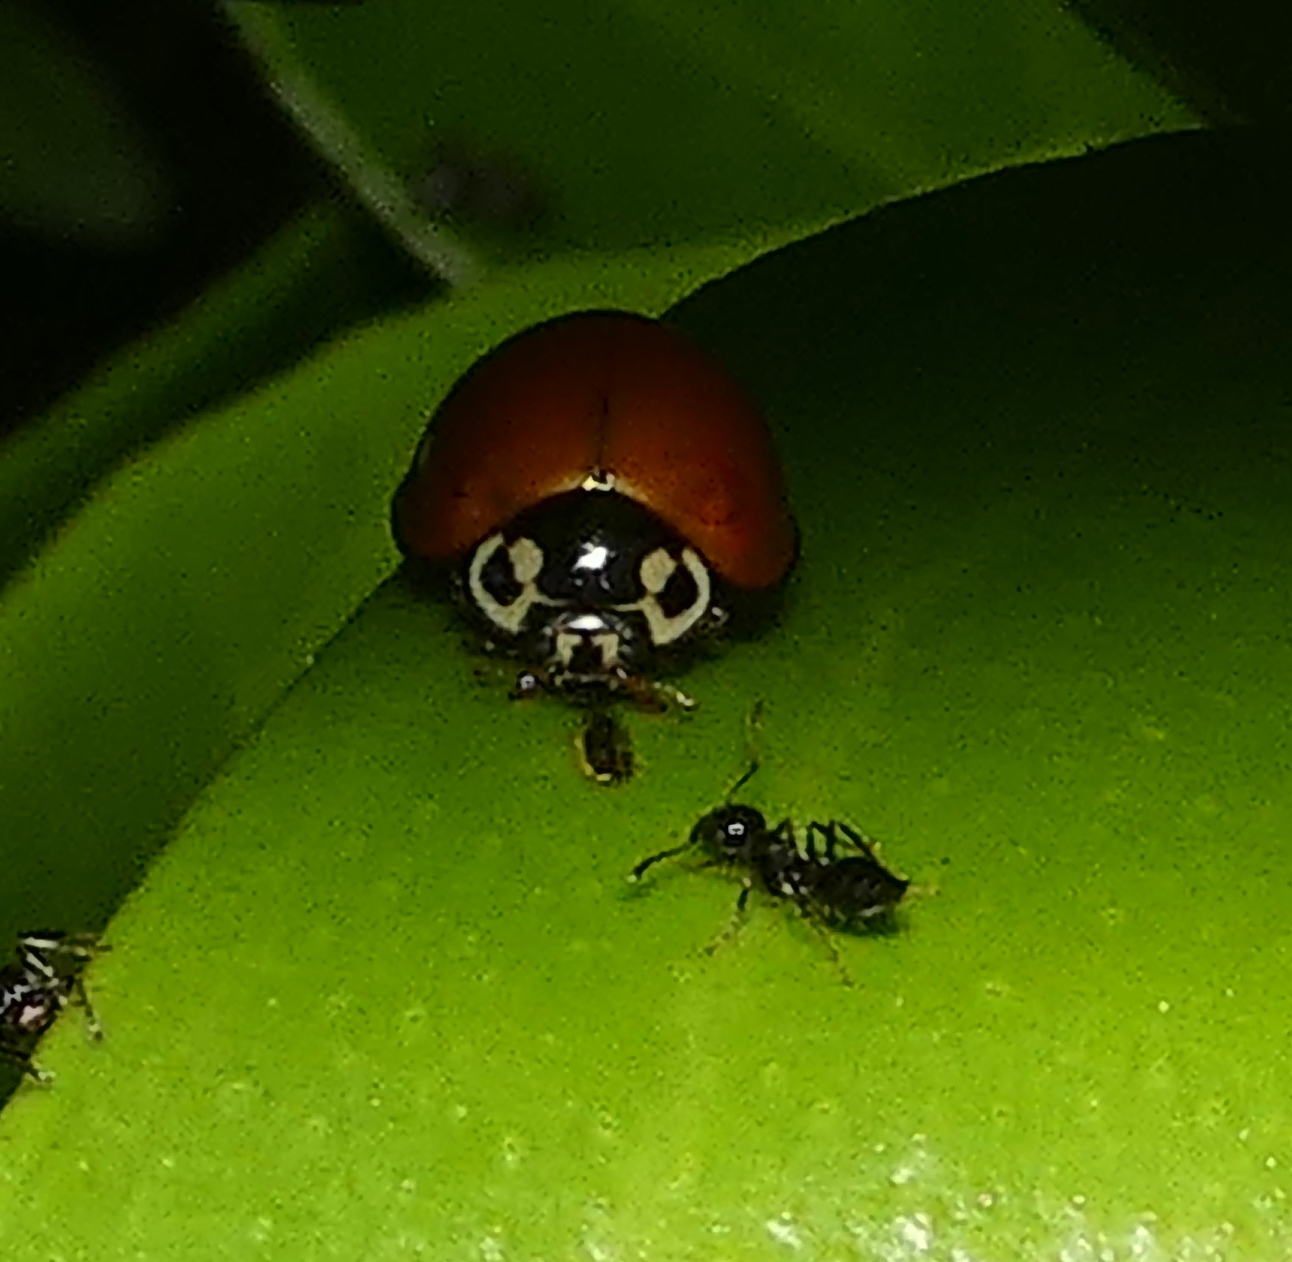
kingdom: Animalia
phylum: Arthropoda
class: Insecta
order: Coleoptera
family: Coccinellidae
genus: Cycloneda
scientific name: Cycloneda sanguinea
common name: Ladybird beetle
